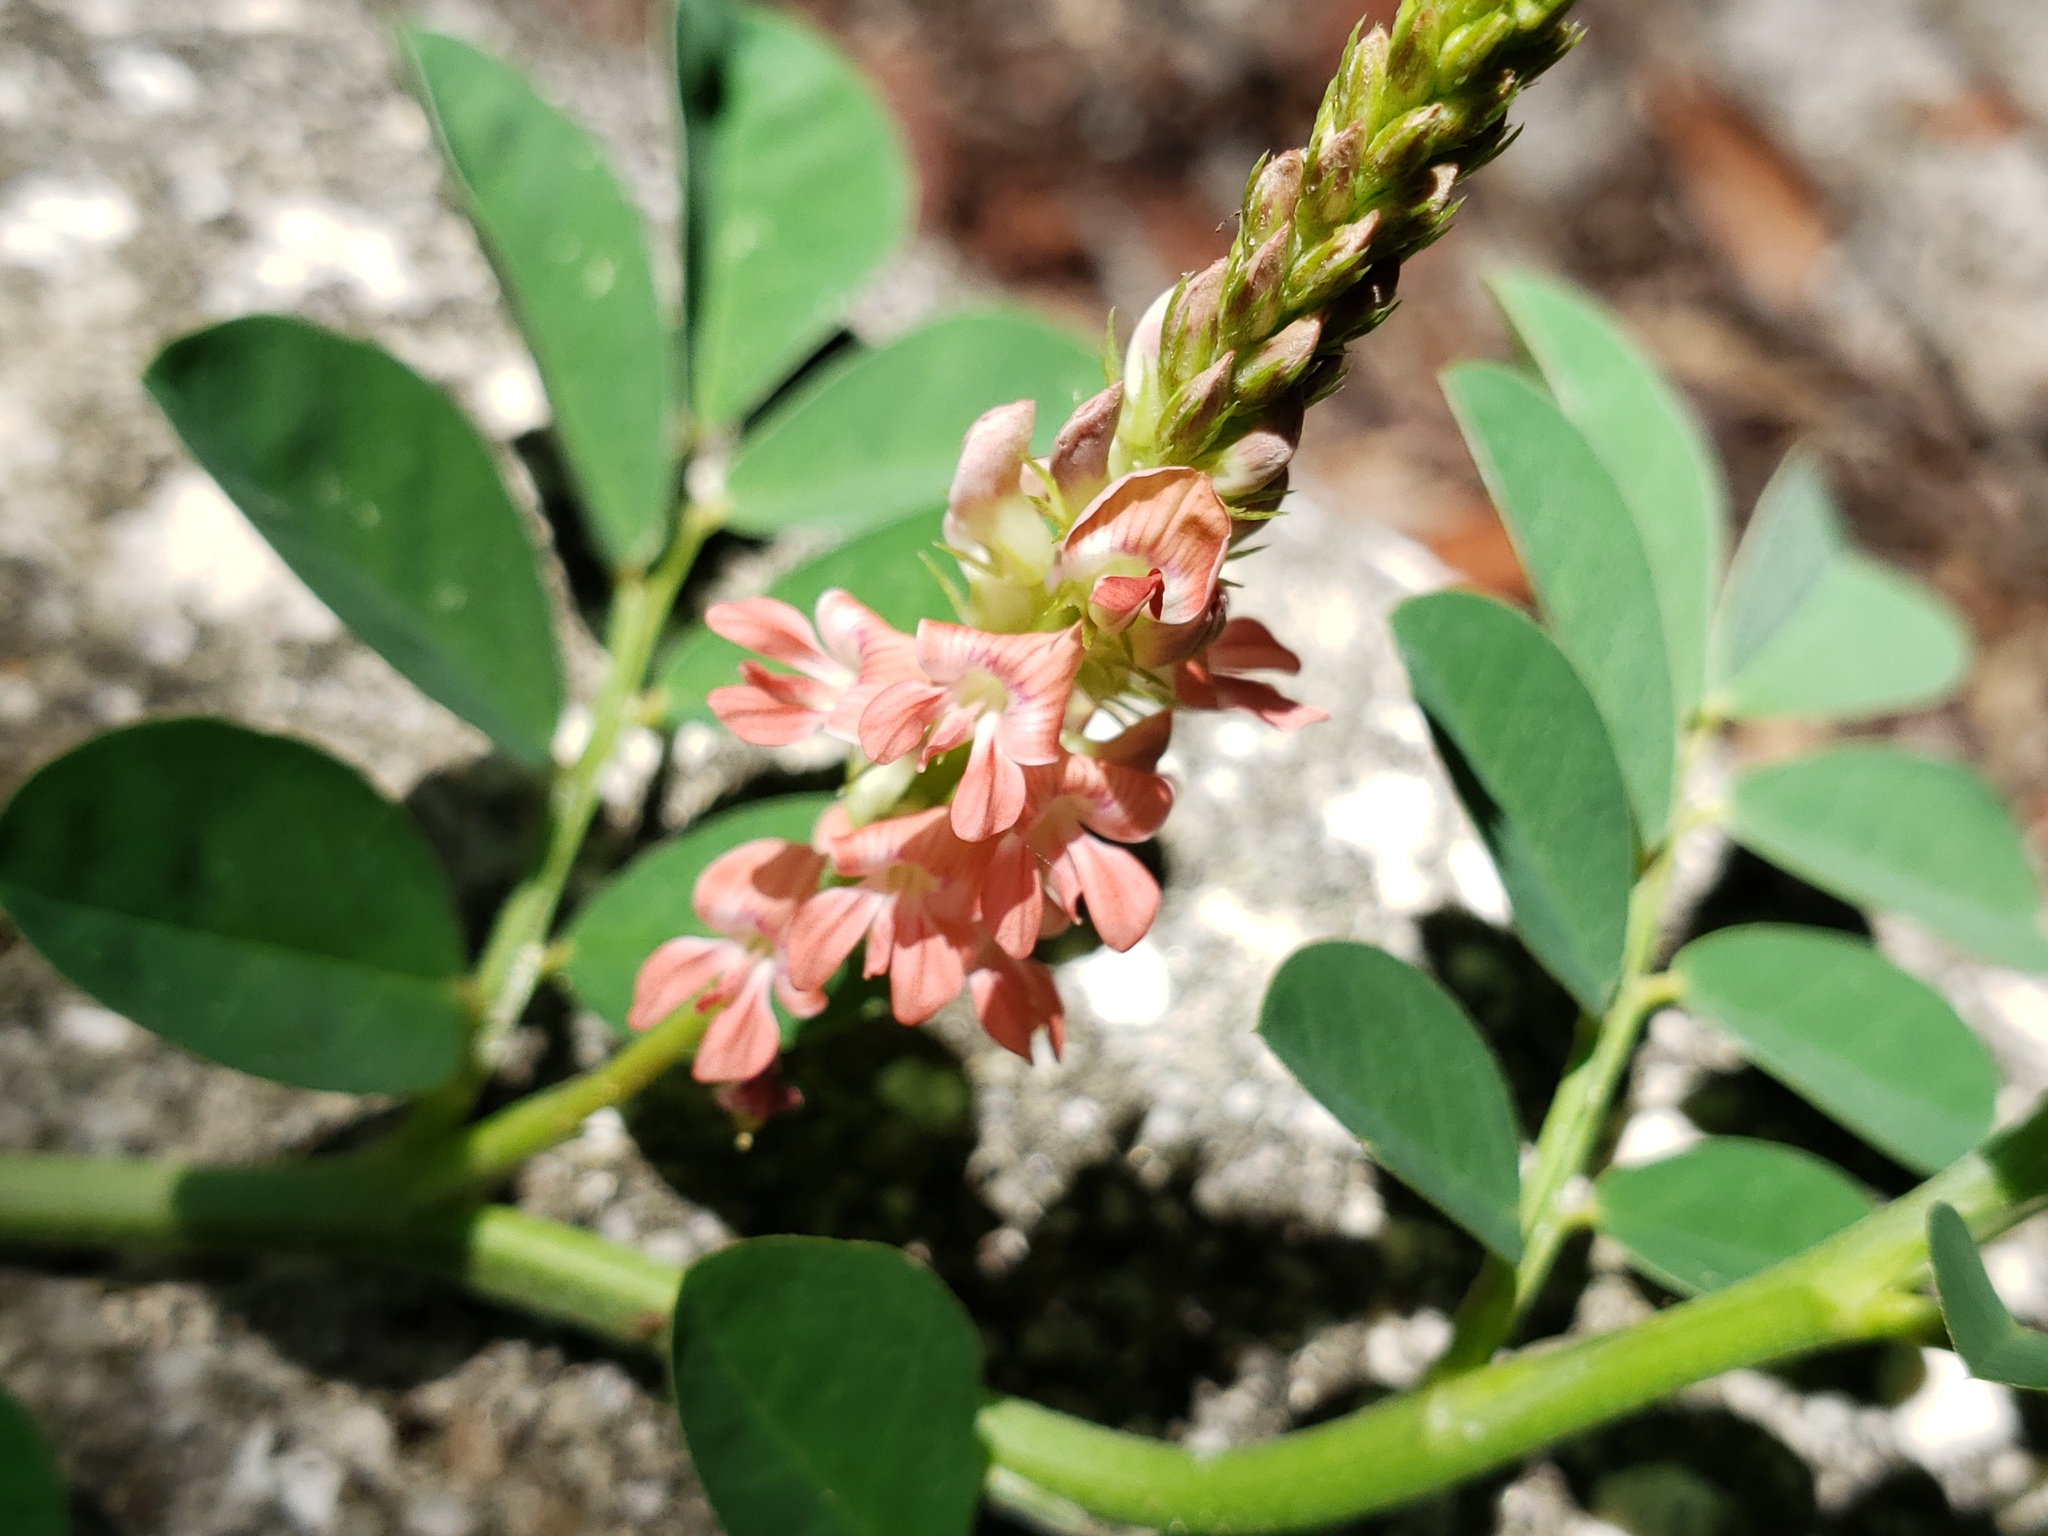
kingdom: Plantae
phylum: Tracheophyta
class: Magnoliopsida
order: Fabales
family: Fabaceae
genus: Indigofera
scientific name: Indigofera spicata
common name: Creeping indigo
